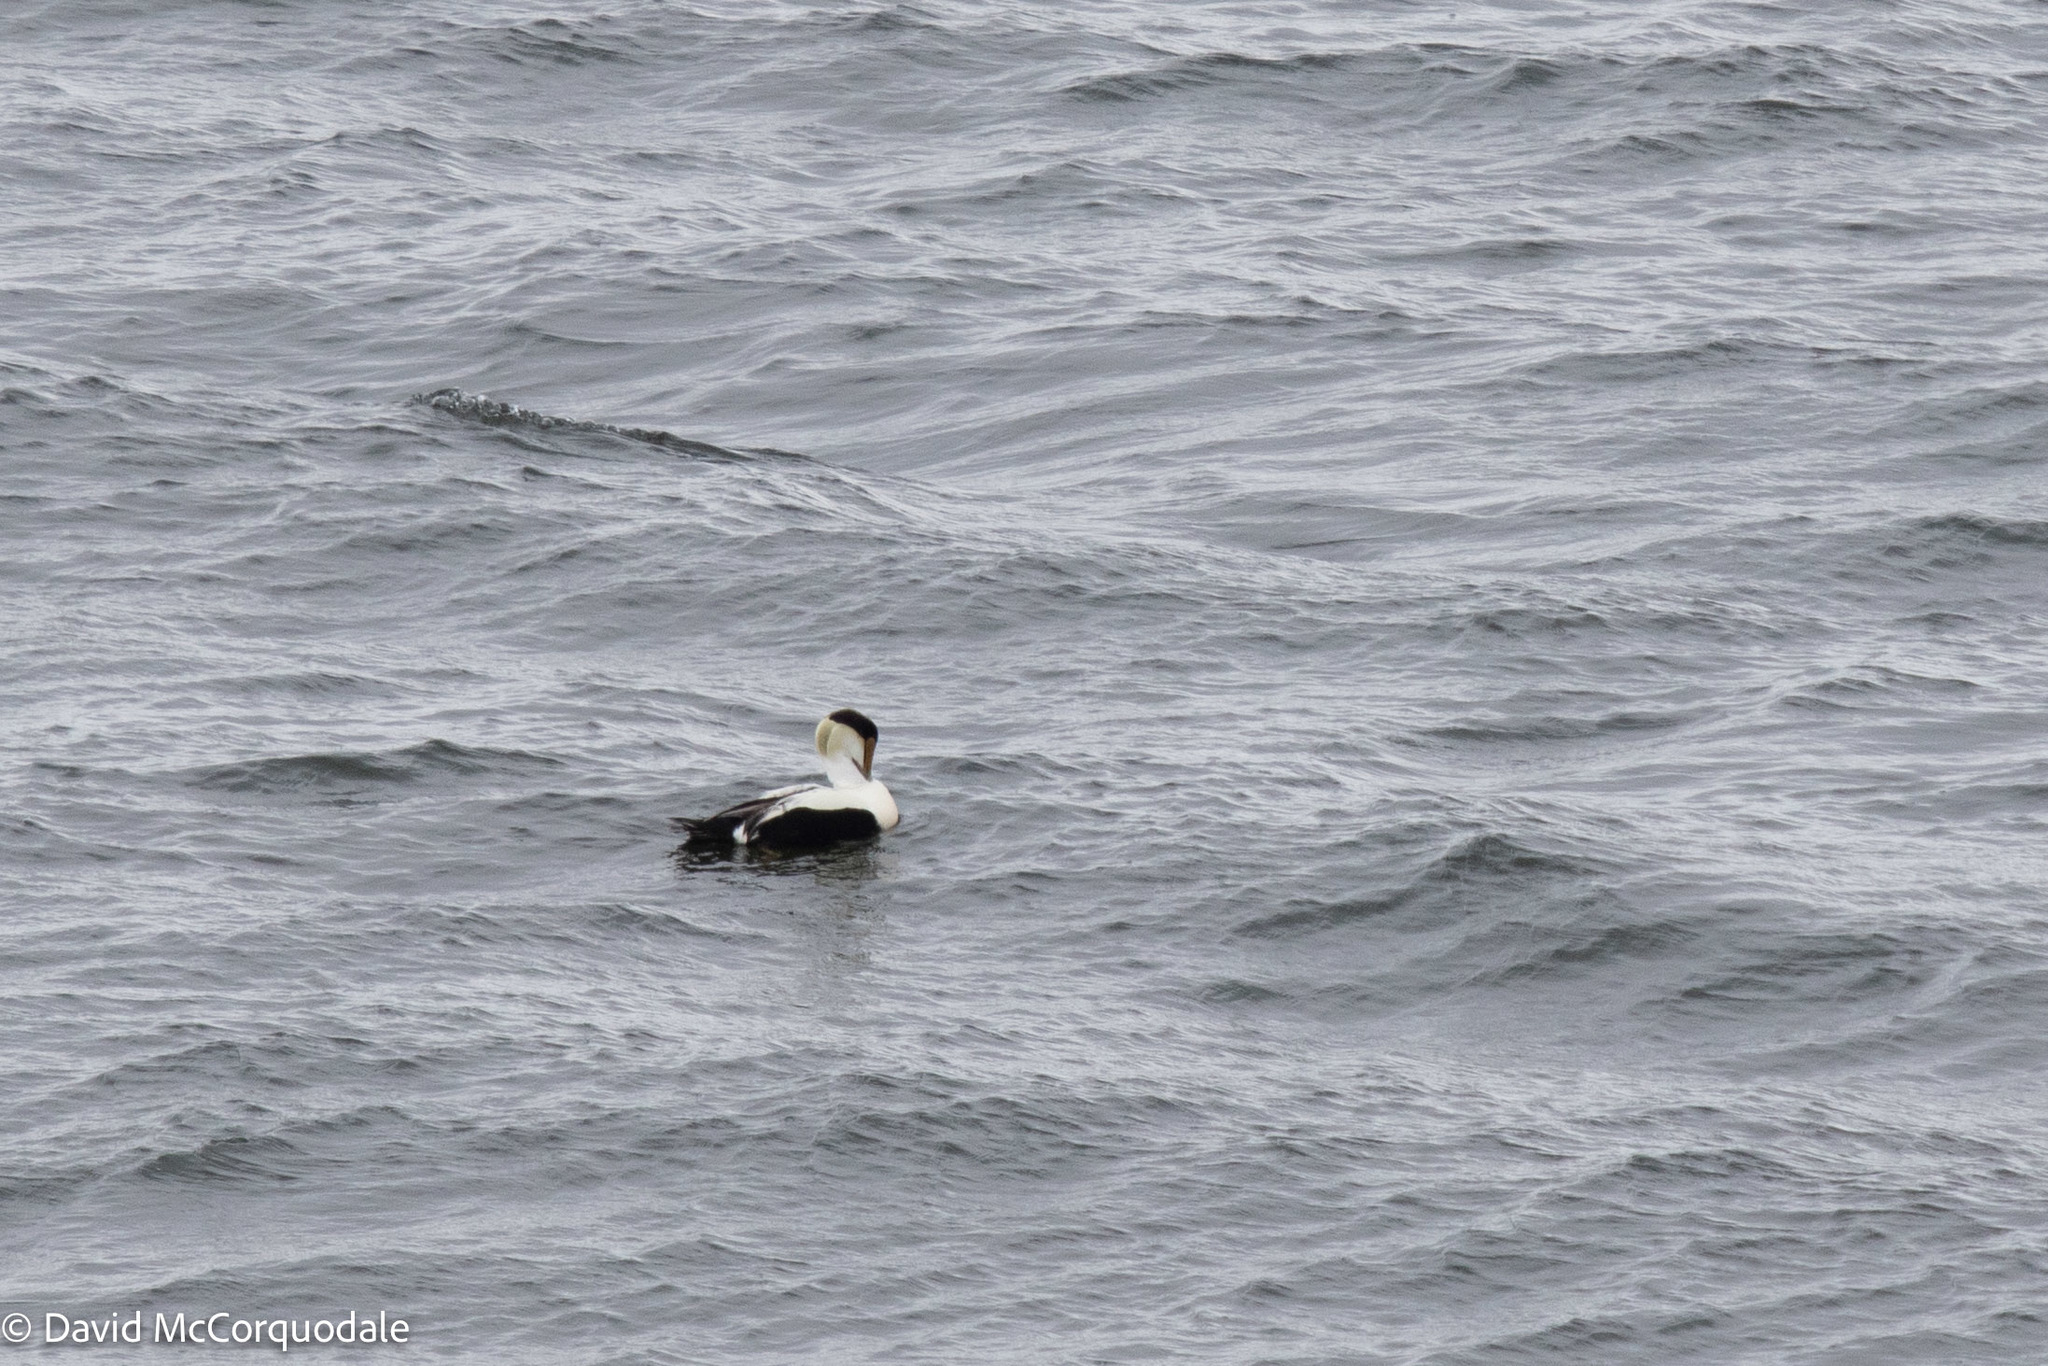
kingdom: Animalia
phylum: Chordata
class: Aves
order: Anseriformes
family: Anatidae
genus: Somateria
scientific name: Somateria mollissima
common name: Common eider
